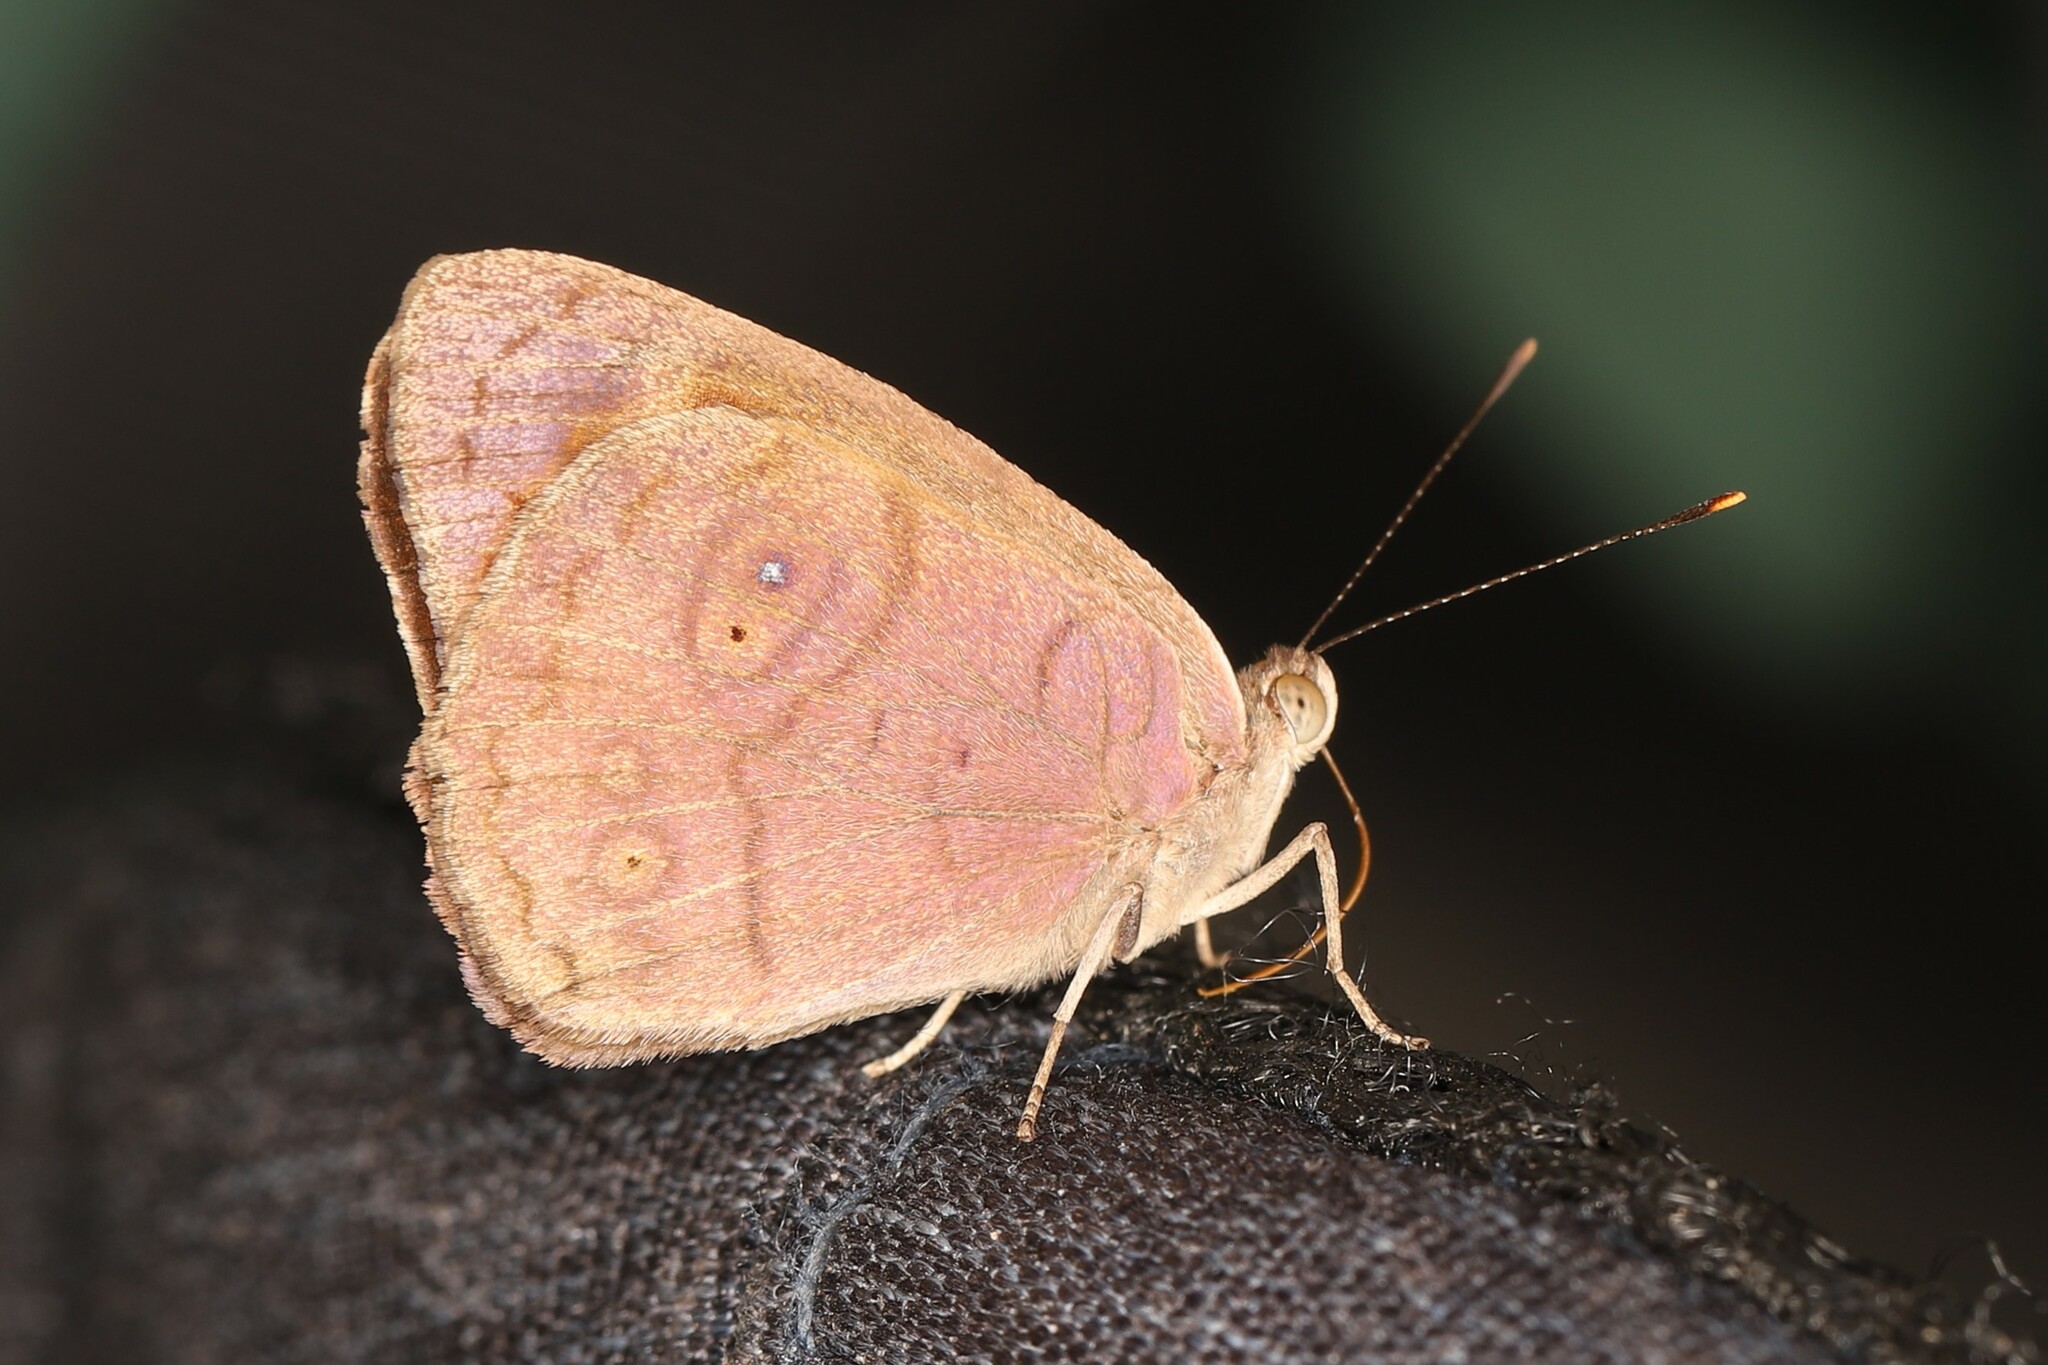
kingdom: Animalia
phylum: Arthropoda
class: Insecta
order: Lepidoptera
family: Nymphalidae
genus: Eunica
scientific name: Eunica pusilla
